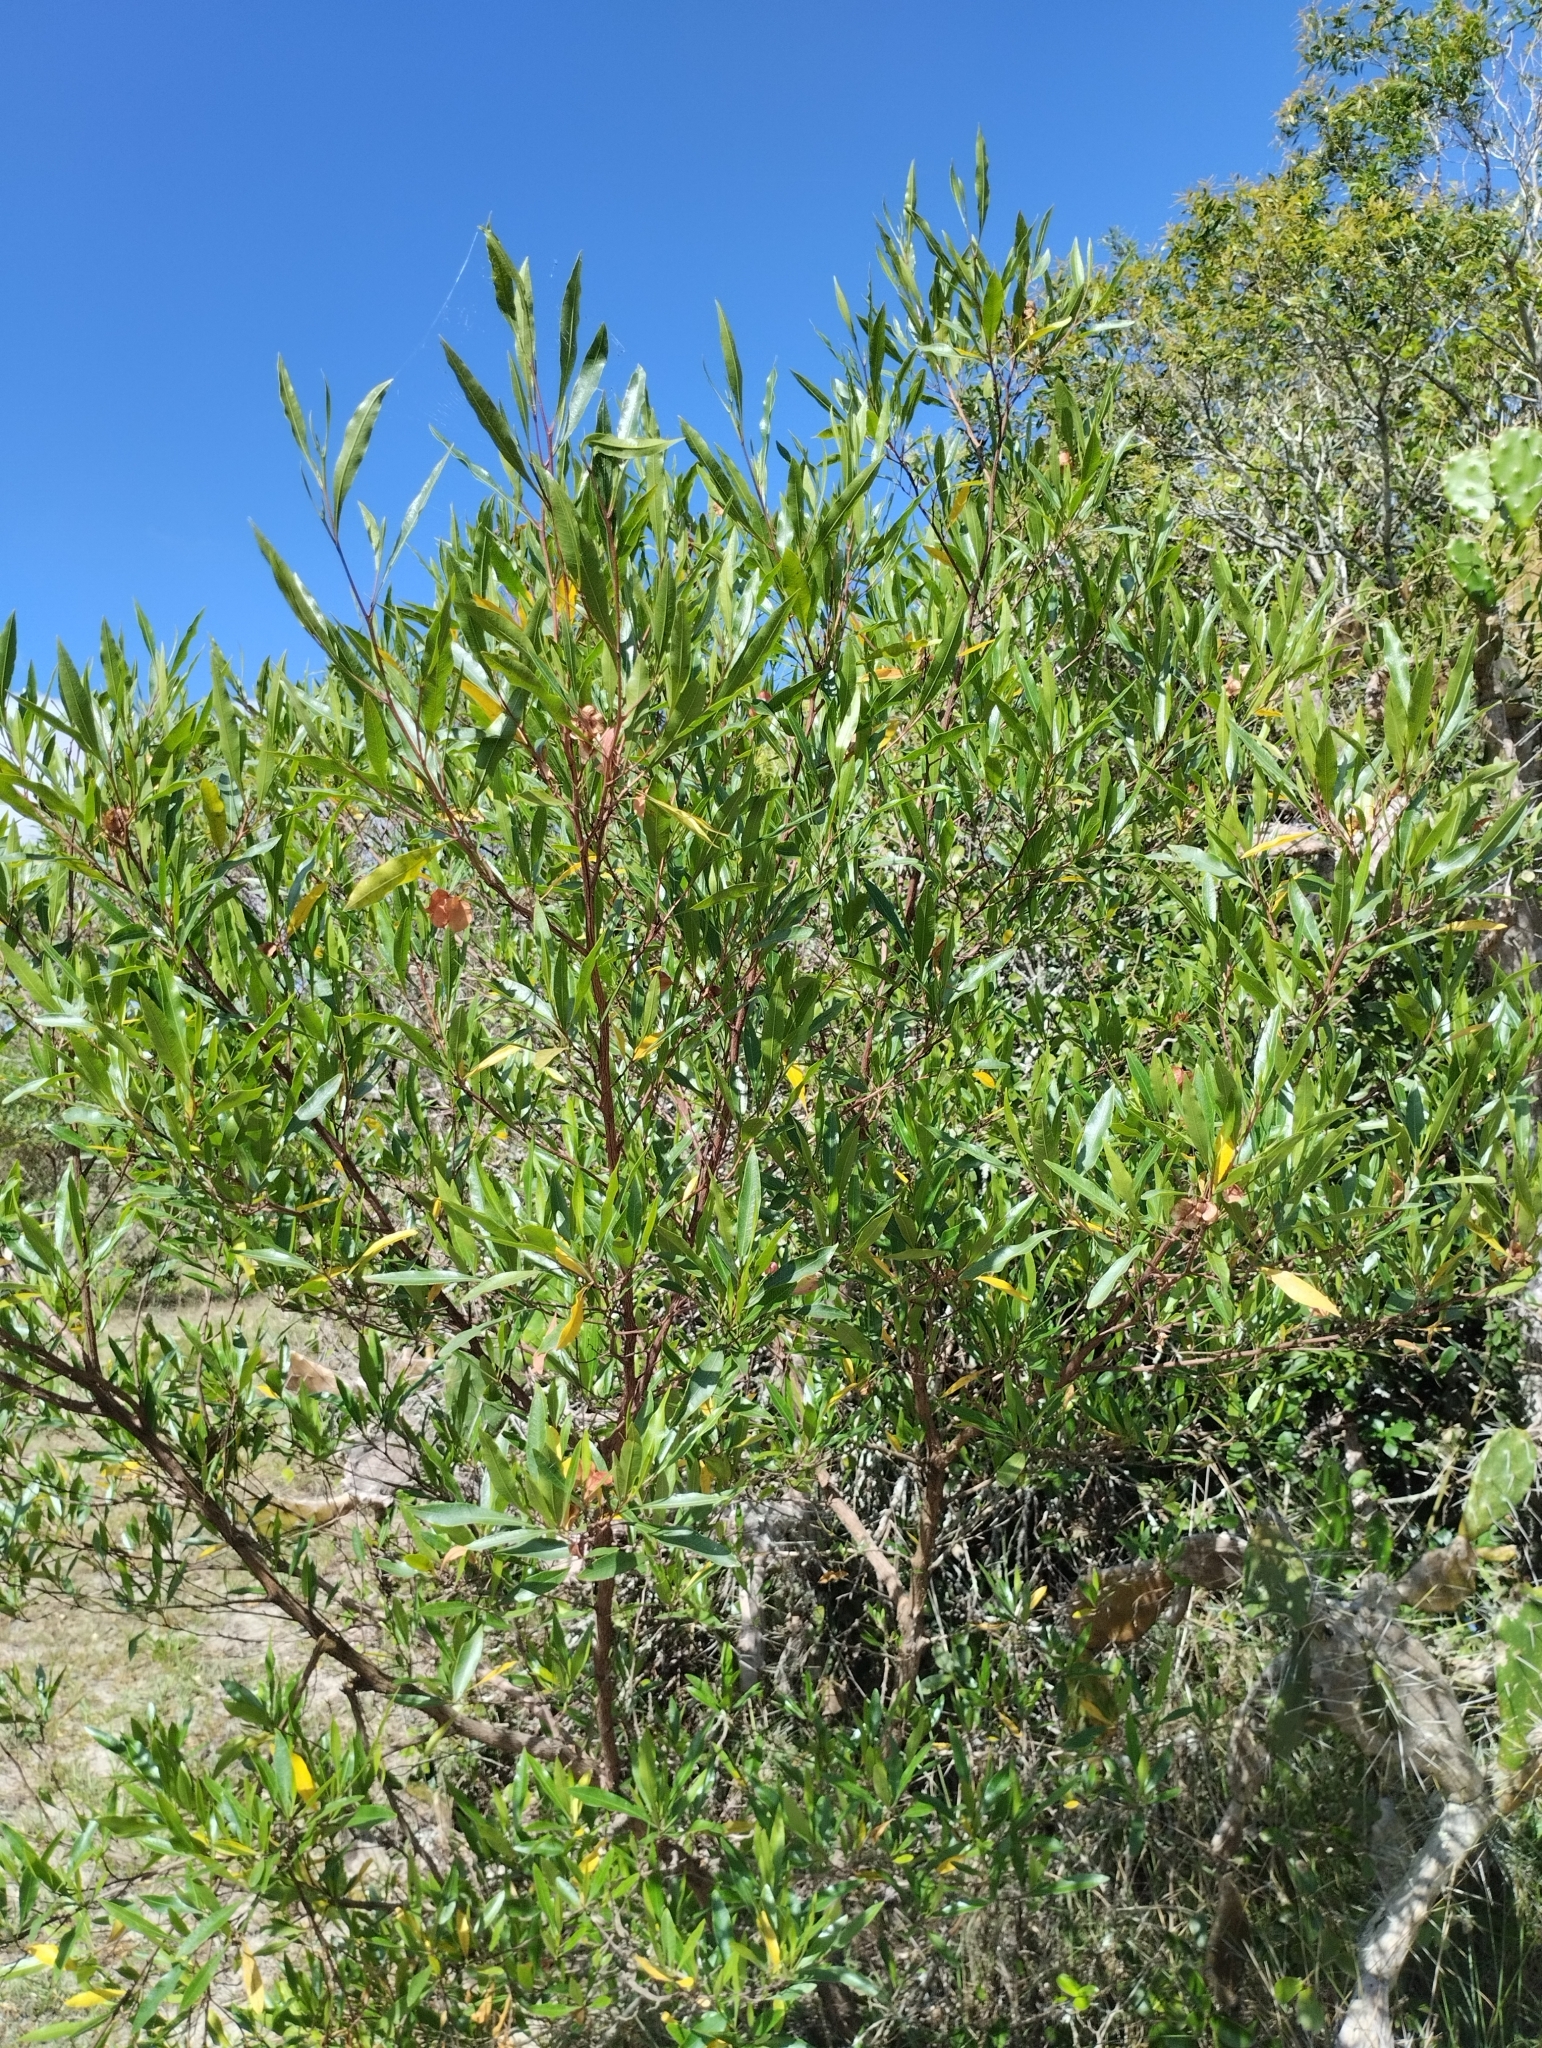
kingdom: Plantae
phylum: Tracheophyta
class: Magnoliopsida
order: Sapindales
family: Sapindaceae
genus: Dodonaea
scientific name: Dodonaea viscosa
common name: Hopbush
